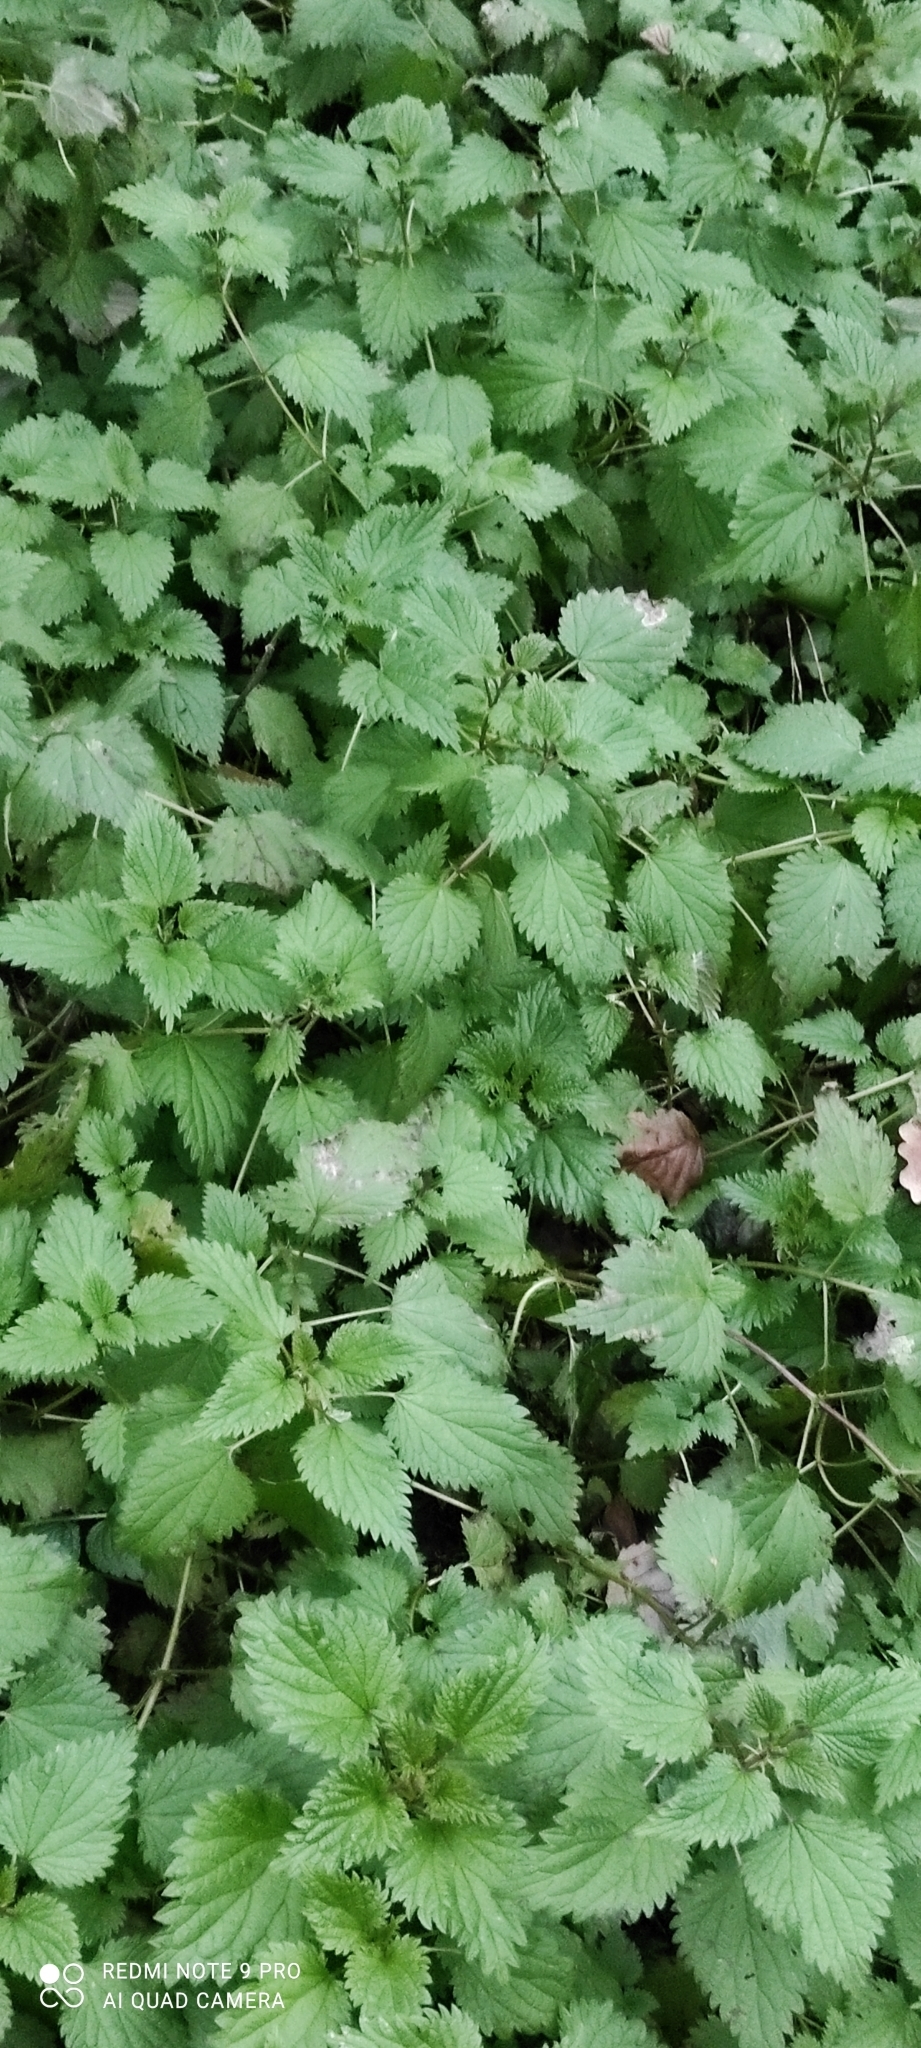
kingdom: Plantae
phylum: Tracheophyta
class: Magnoliopsida
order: Rosales
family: Urticaceae
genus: Urtica
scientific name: Urtica dioica
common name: Common nettle
